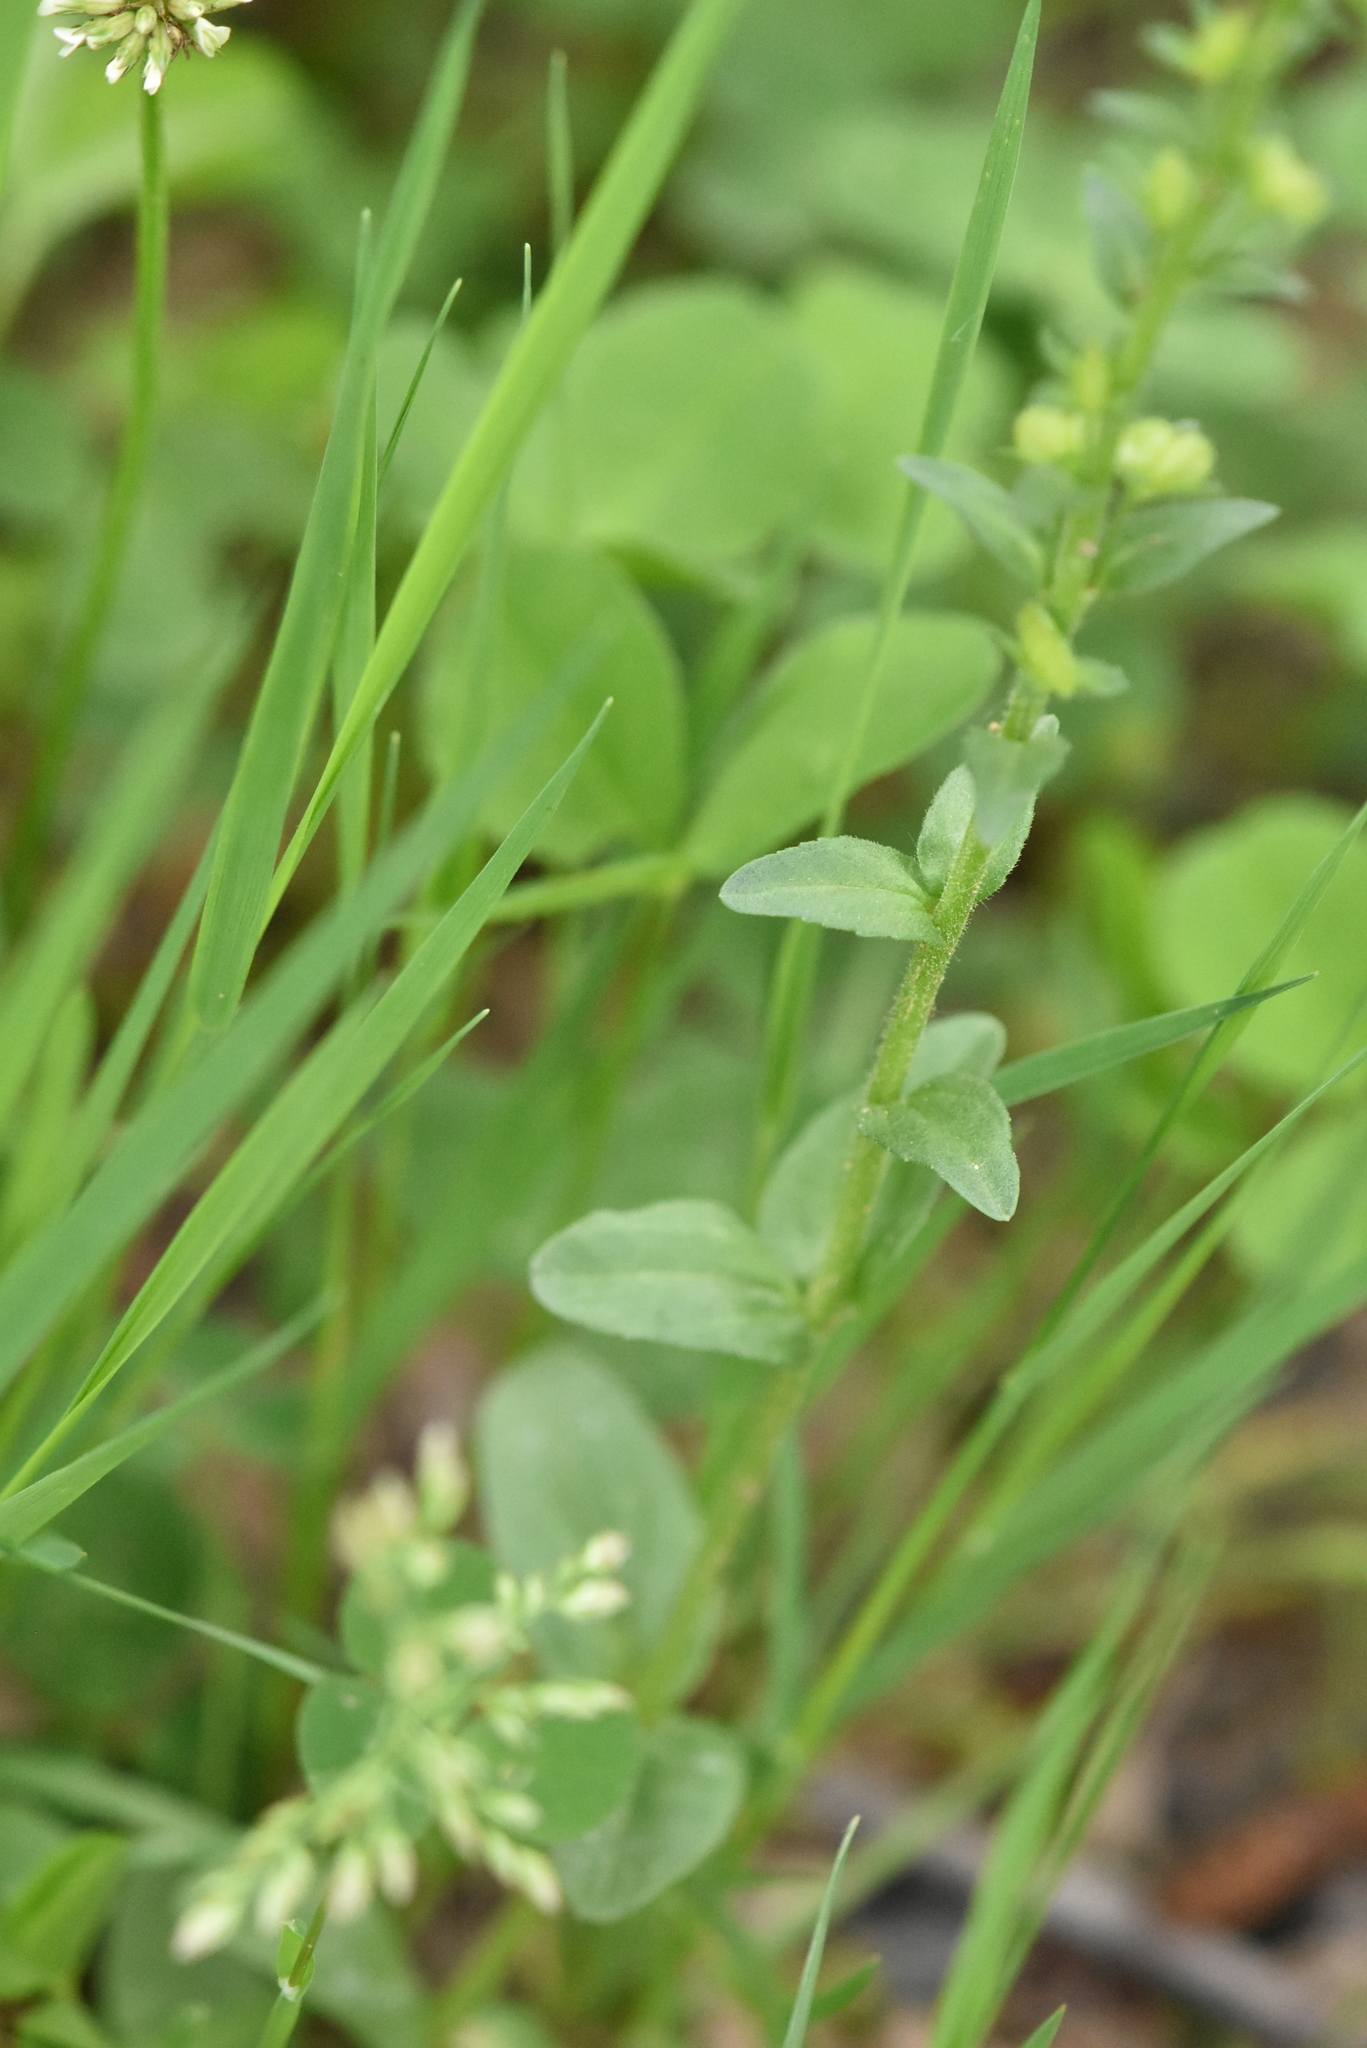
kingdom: Plantae
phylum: Tracheophyta
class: Magnoliopsida
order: Lamiales
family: Plantaginaceae
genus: Veronica
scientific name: Veronica serpyllifolia
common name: Thyme-leaved speedwell
